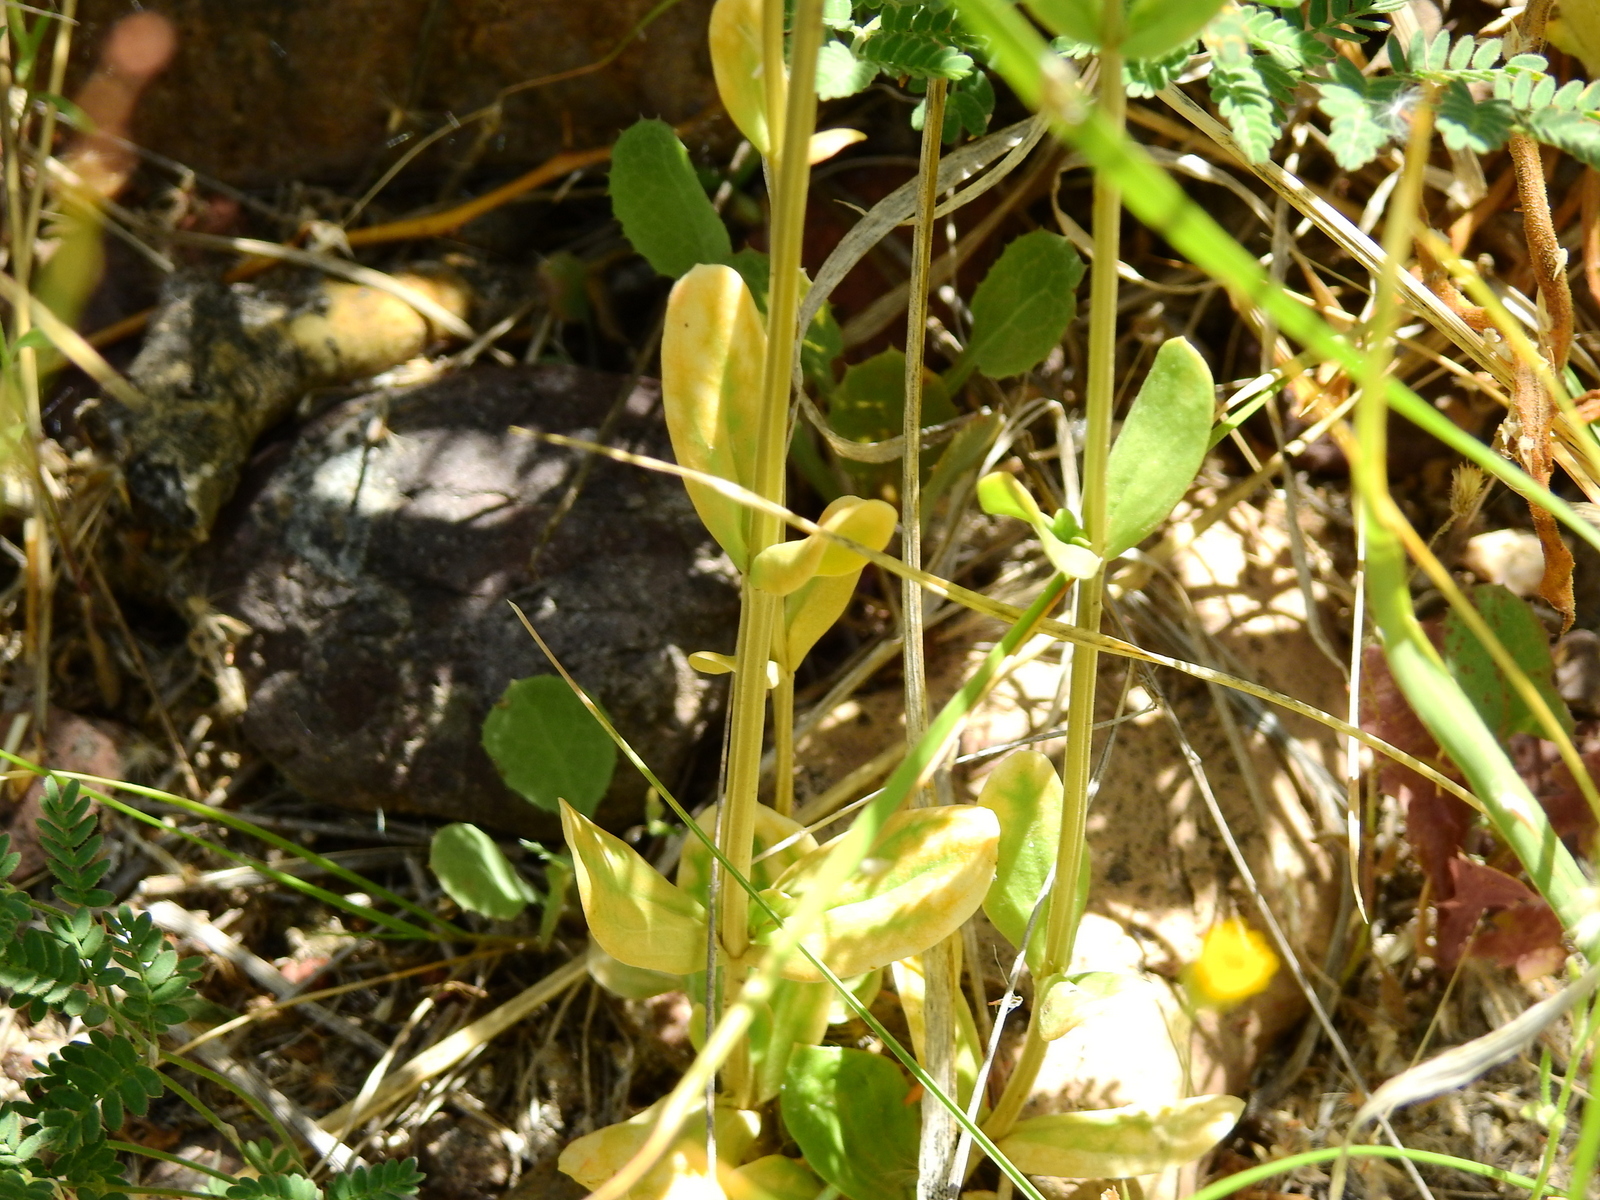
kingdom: Plantae
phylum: Tracheophyta
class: Magnoliopsida
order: Gentianales
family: Gentianaceae
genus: Centaurium
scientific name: Centaurium pulchellum
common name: Lesser centaury
